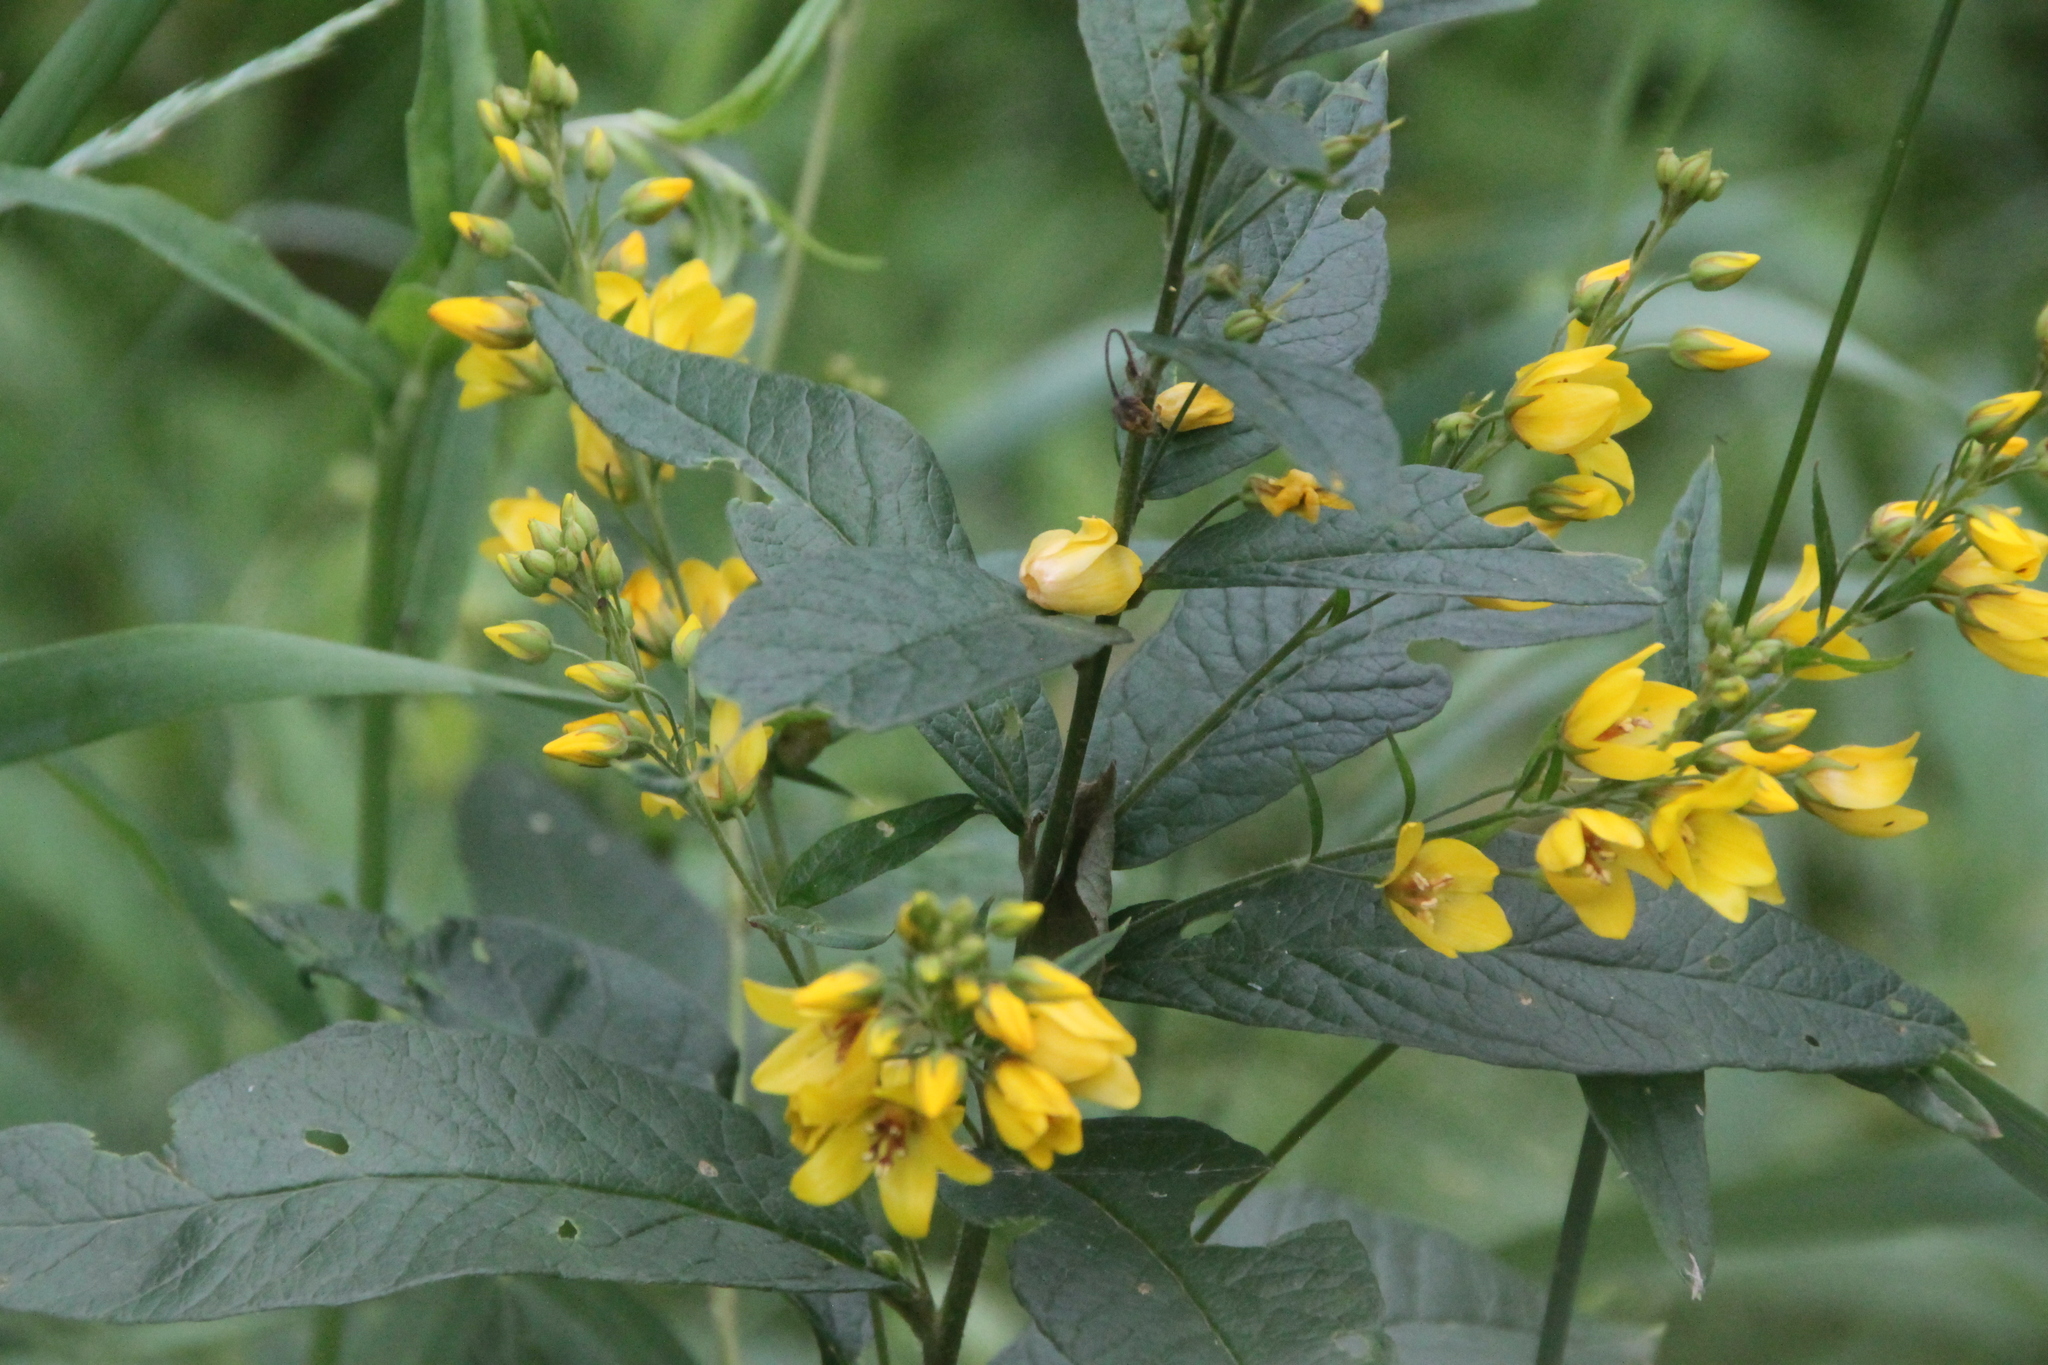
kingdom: Plantae
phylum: Tracheophyta
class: Magnoliopsida
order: Ericales
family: Primulaceae
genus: Lysimachia
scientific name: Lysimachia vulgaris
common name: Yellow loosestrife
